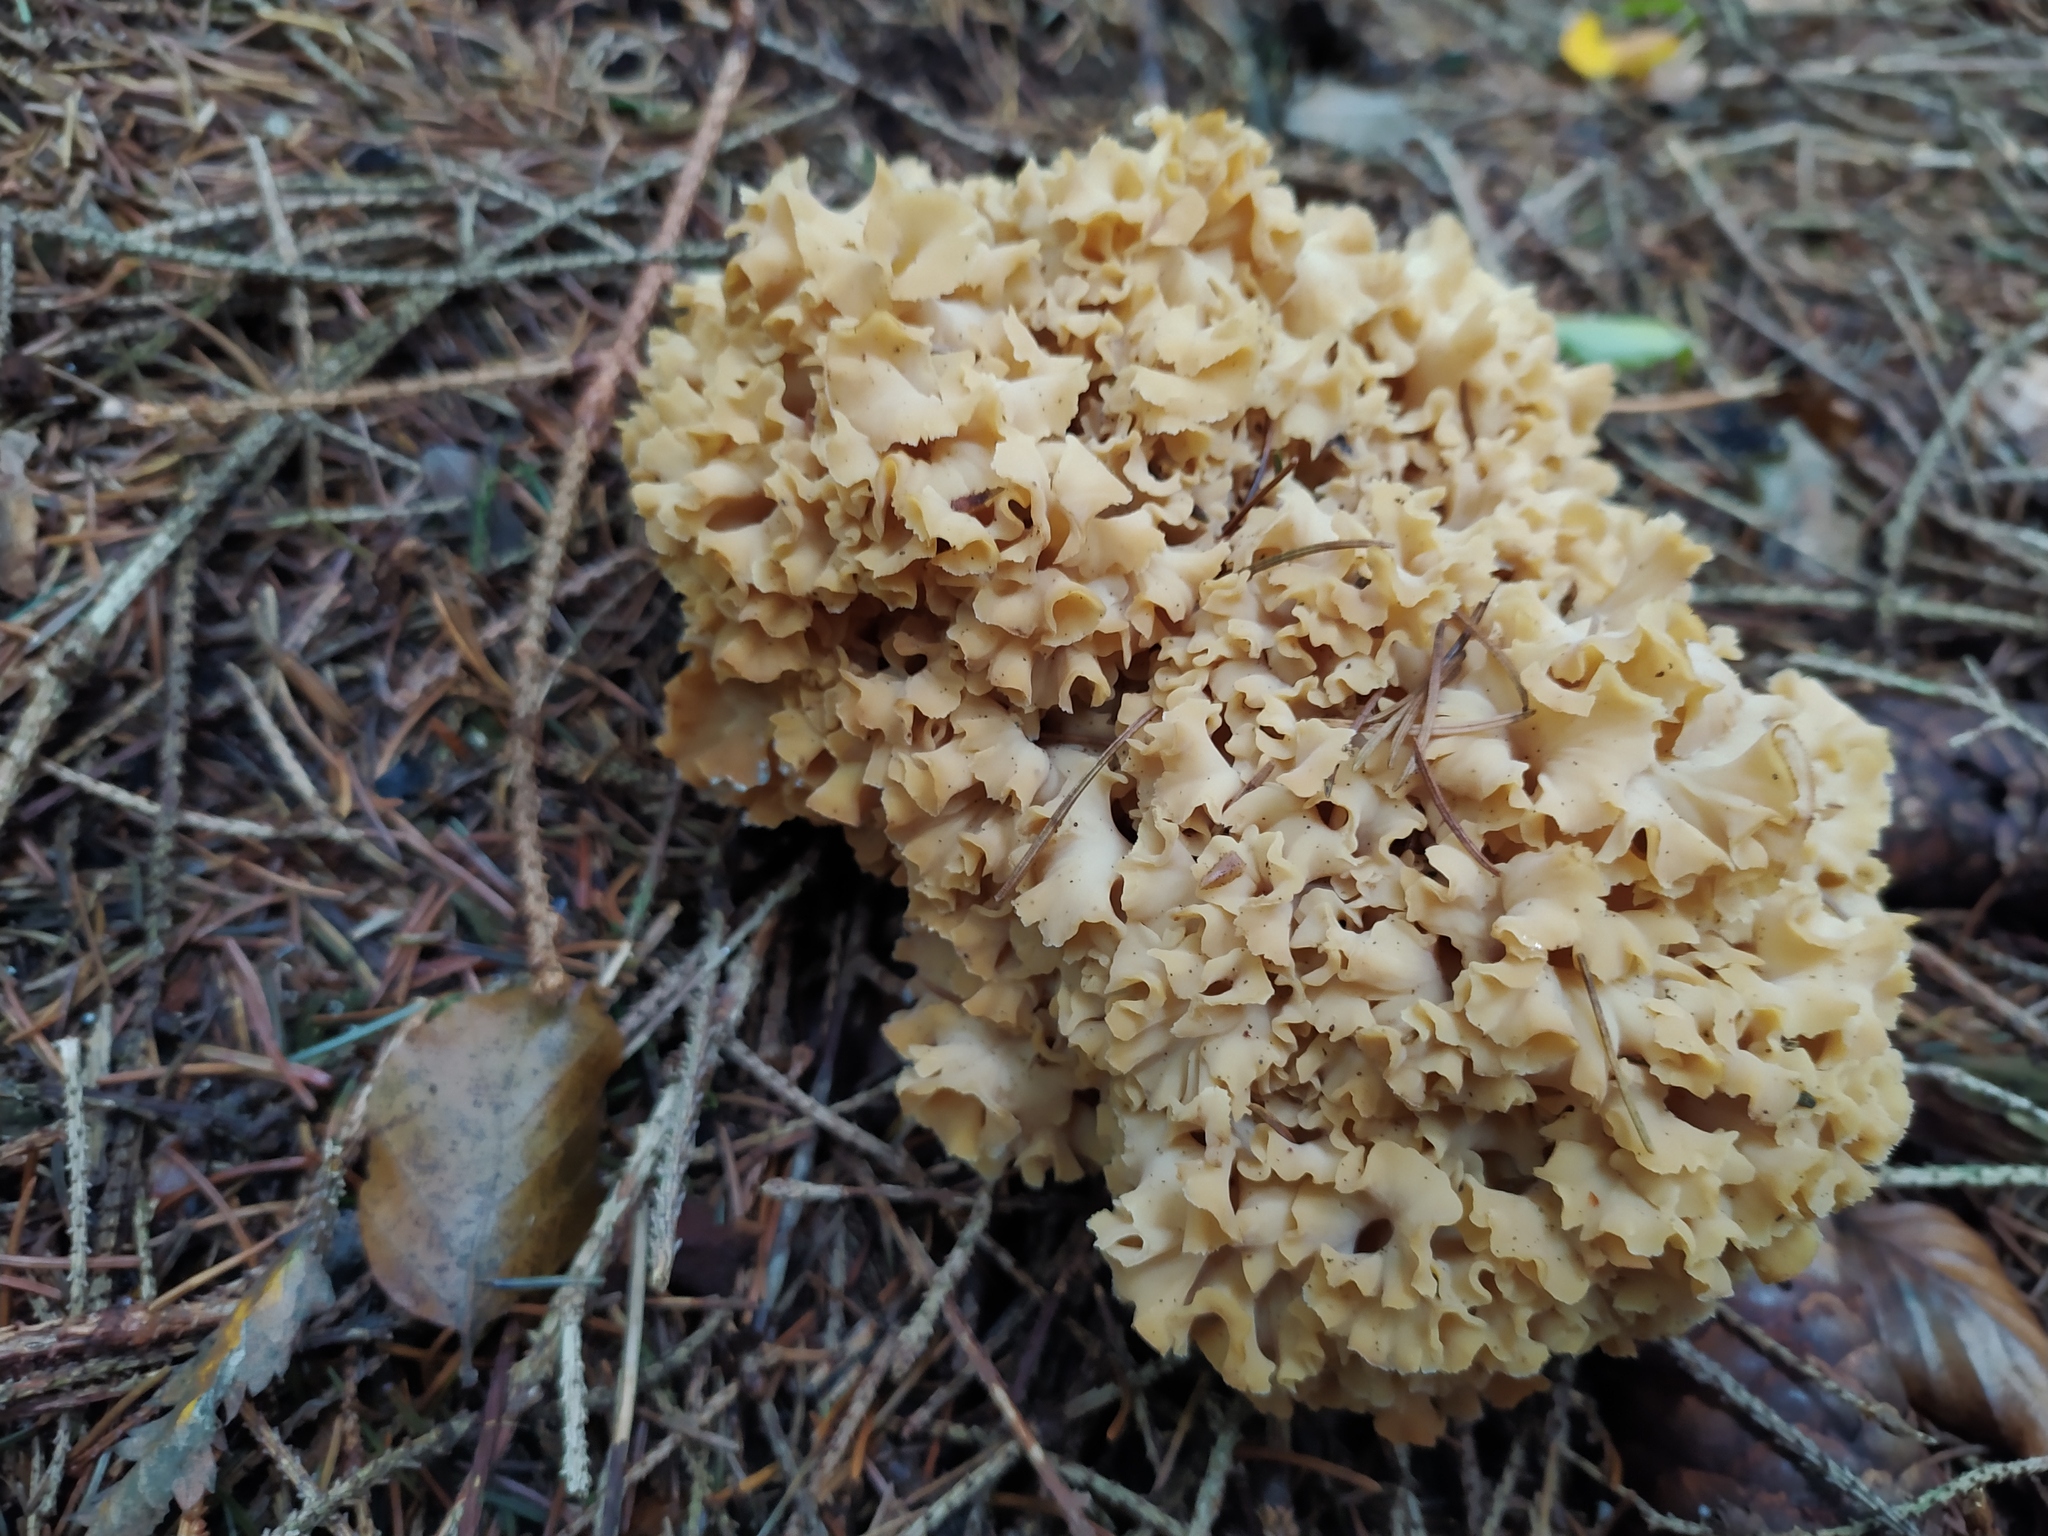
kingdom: Fungi
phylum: Basidiomycota
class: Agaricomycetes
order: Polyporales
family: Sparassidaceae
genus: Sparassis
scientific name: Sparassis crispa
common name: Brain fungus
